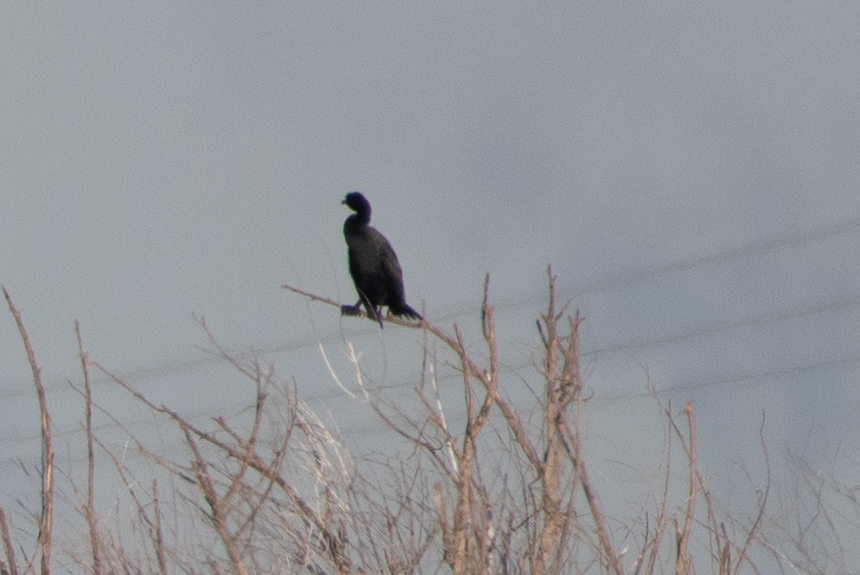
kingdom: Animalia
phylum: Chordata
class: Aves
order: Suliformes
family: Phalacrocoracidae
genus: Phalacrocorax
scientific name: Phalacrocorax auritus
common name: Double-crested cormorant
